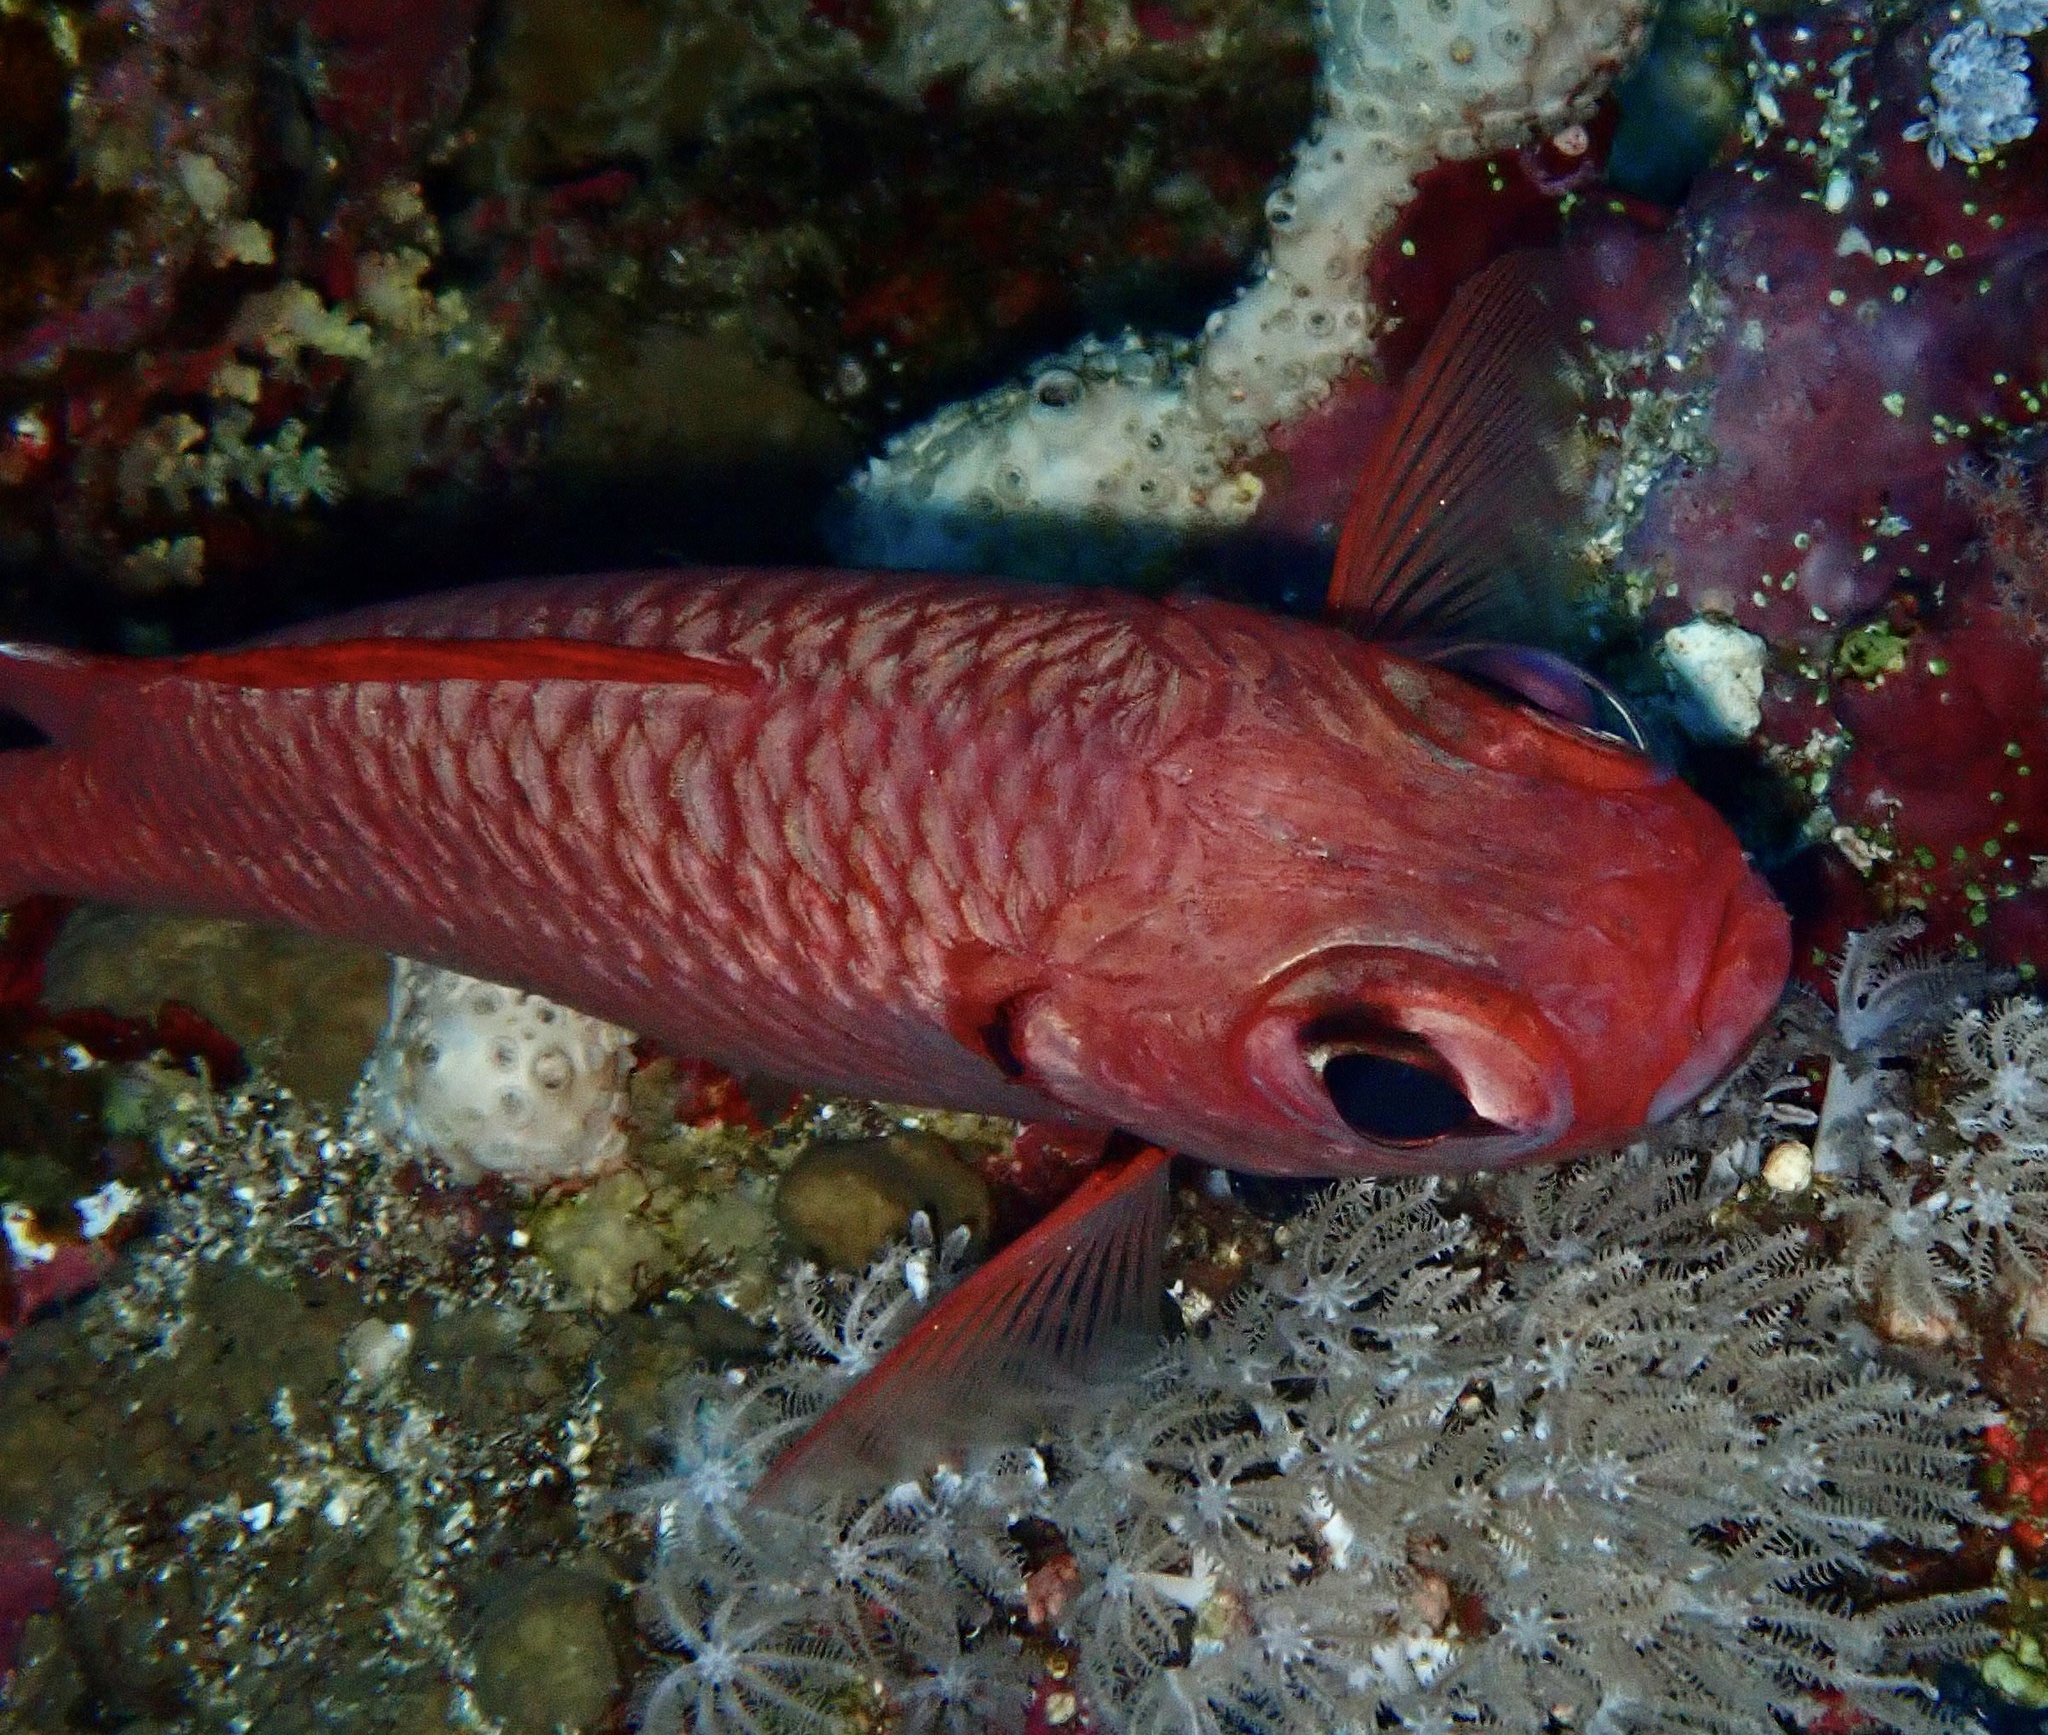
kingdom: Animalia
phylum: Chordata
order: Beryciformes
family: Holocentridae
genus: Myripristis
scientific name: Myripristis murdjan
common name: Big-eye soldierfish
